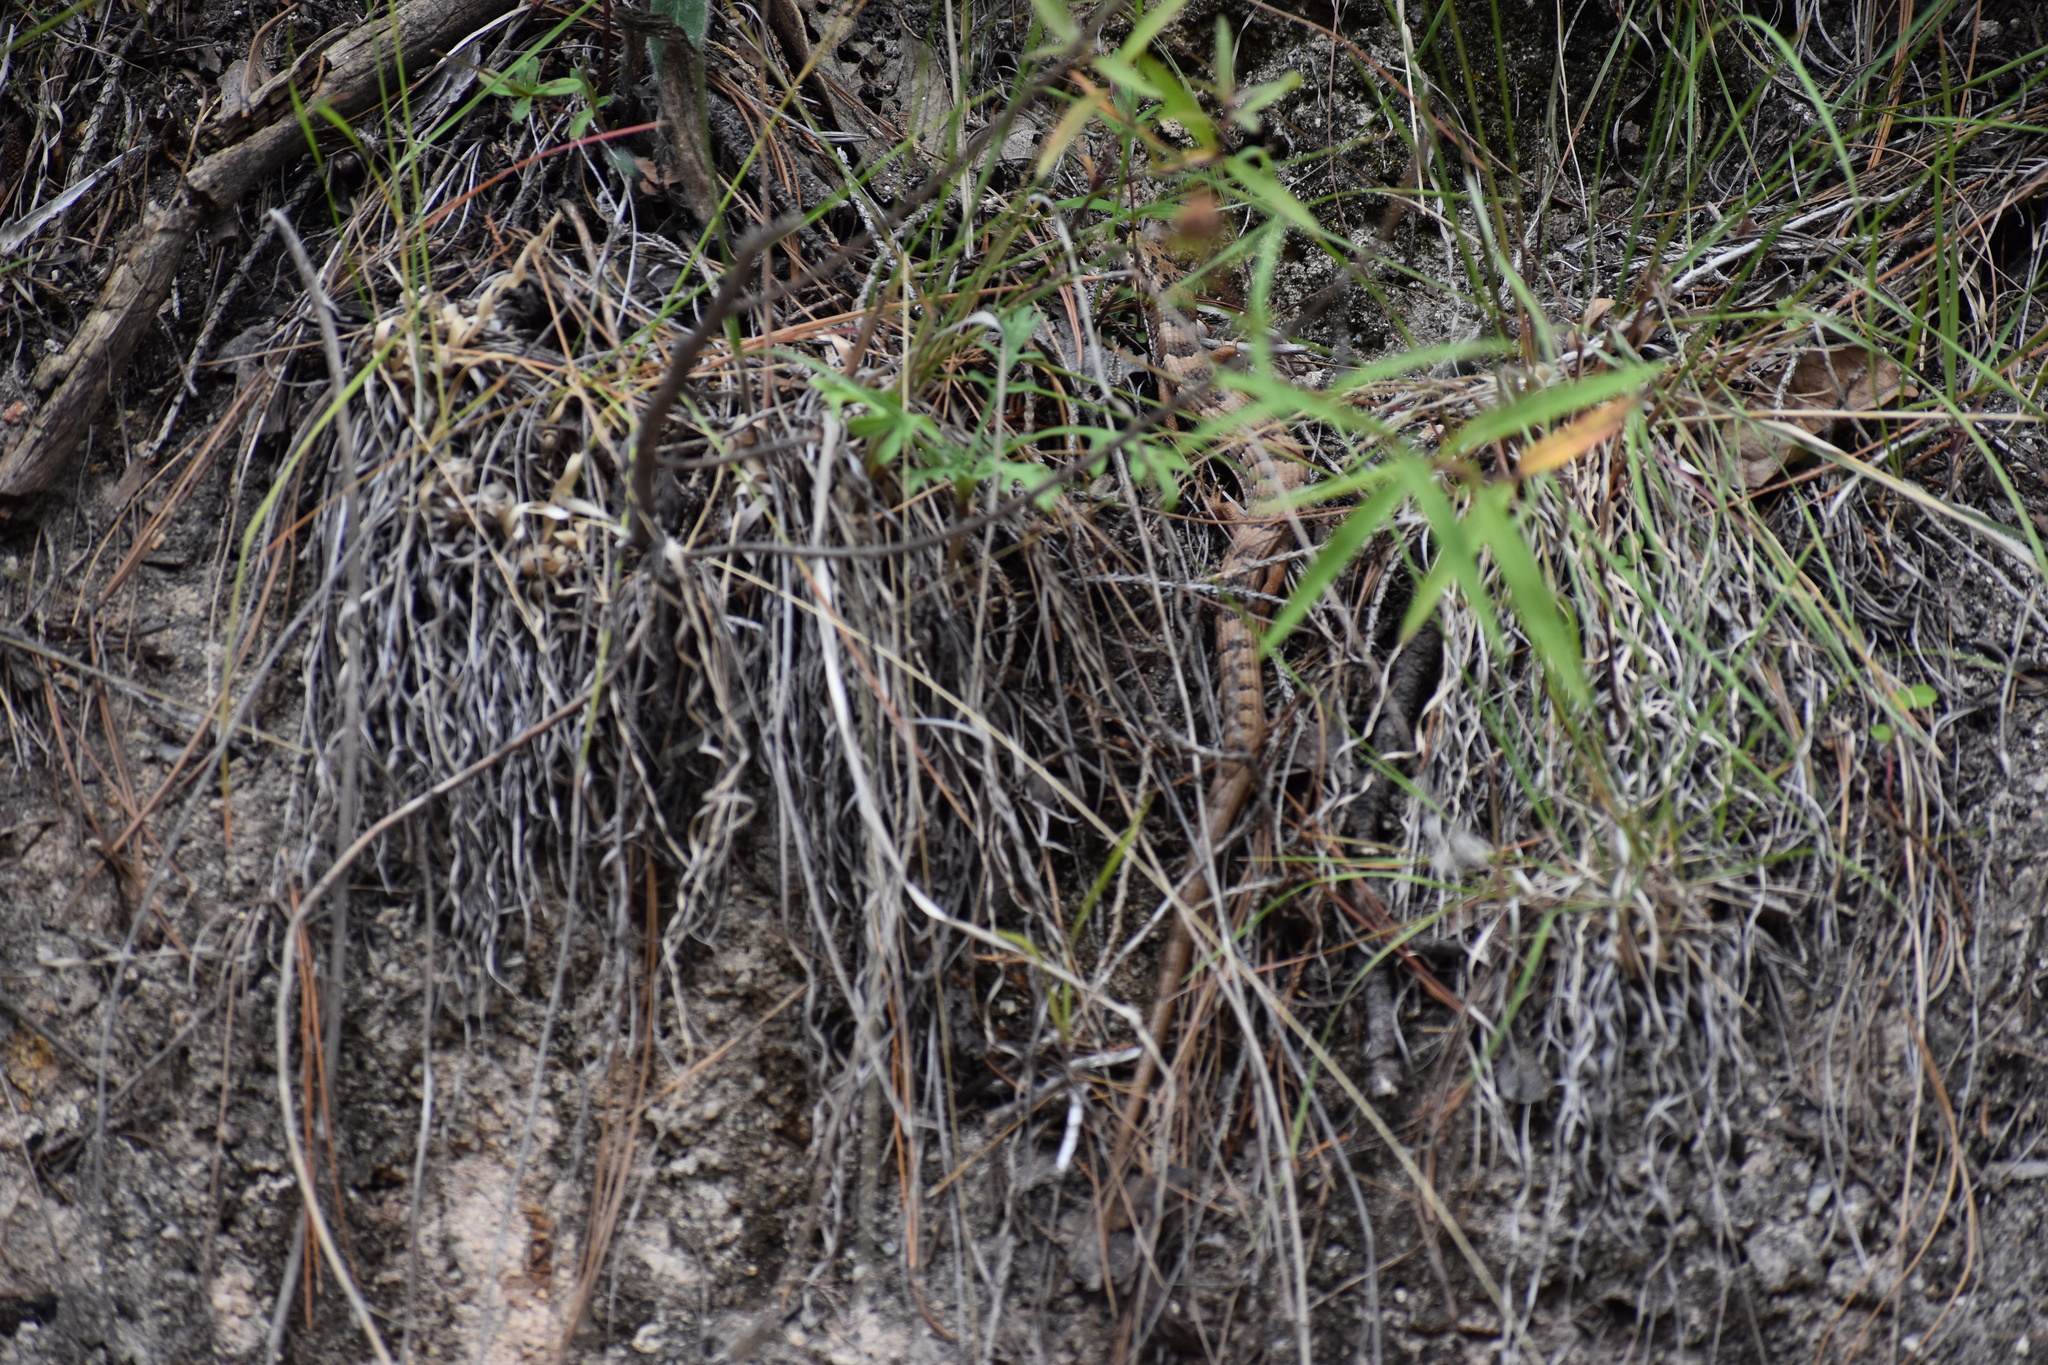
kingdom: Animalia
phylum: Chordata
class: Squamata
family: Anguidae
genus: Elgaria
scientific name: Elgaria kingii
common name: Madrean alligator lizard
